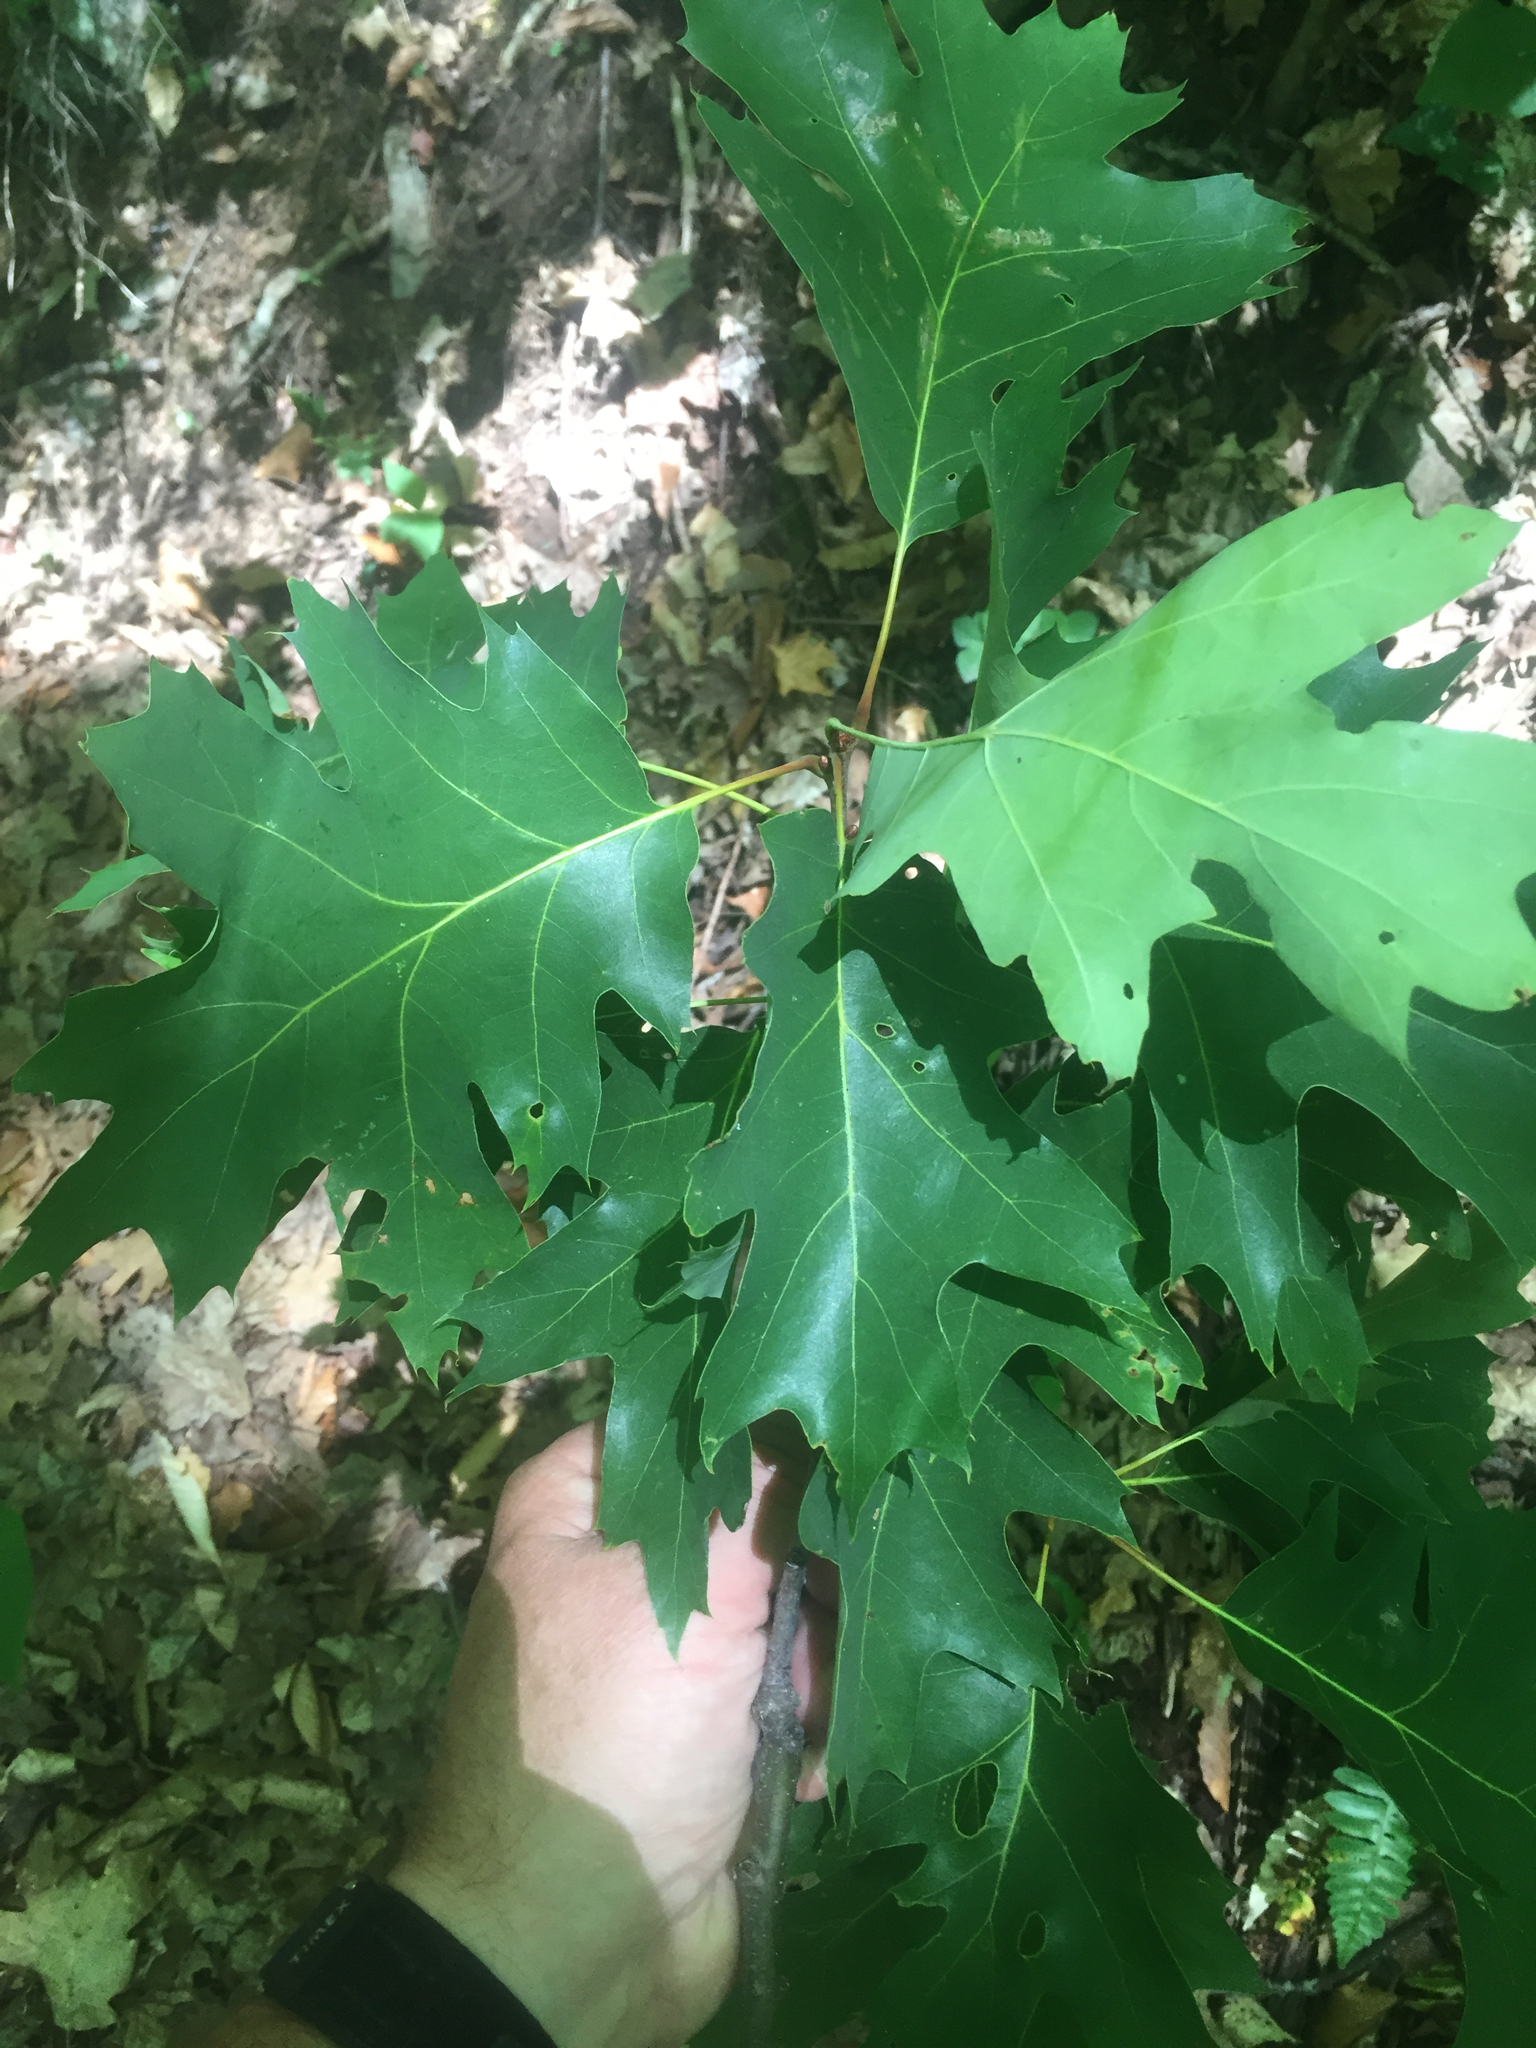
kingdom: Plantae
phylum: Tracheophyta
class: Magnoliopsida
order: Fagales
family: Fagaceae
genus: Quercus
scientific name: Quercus rubra
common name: Red oak
